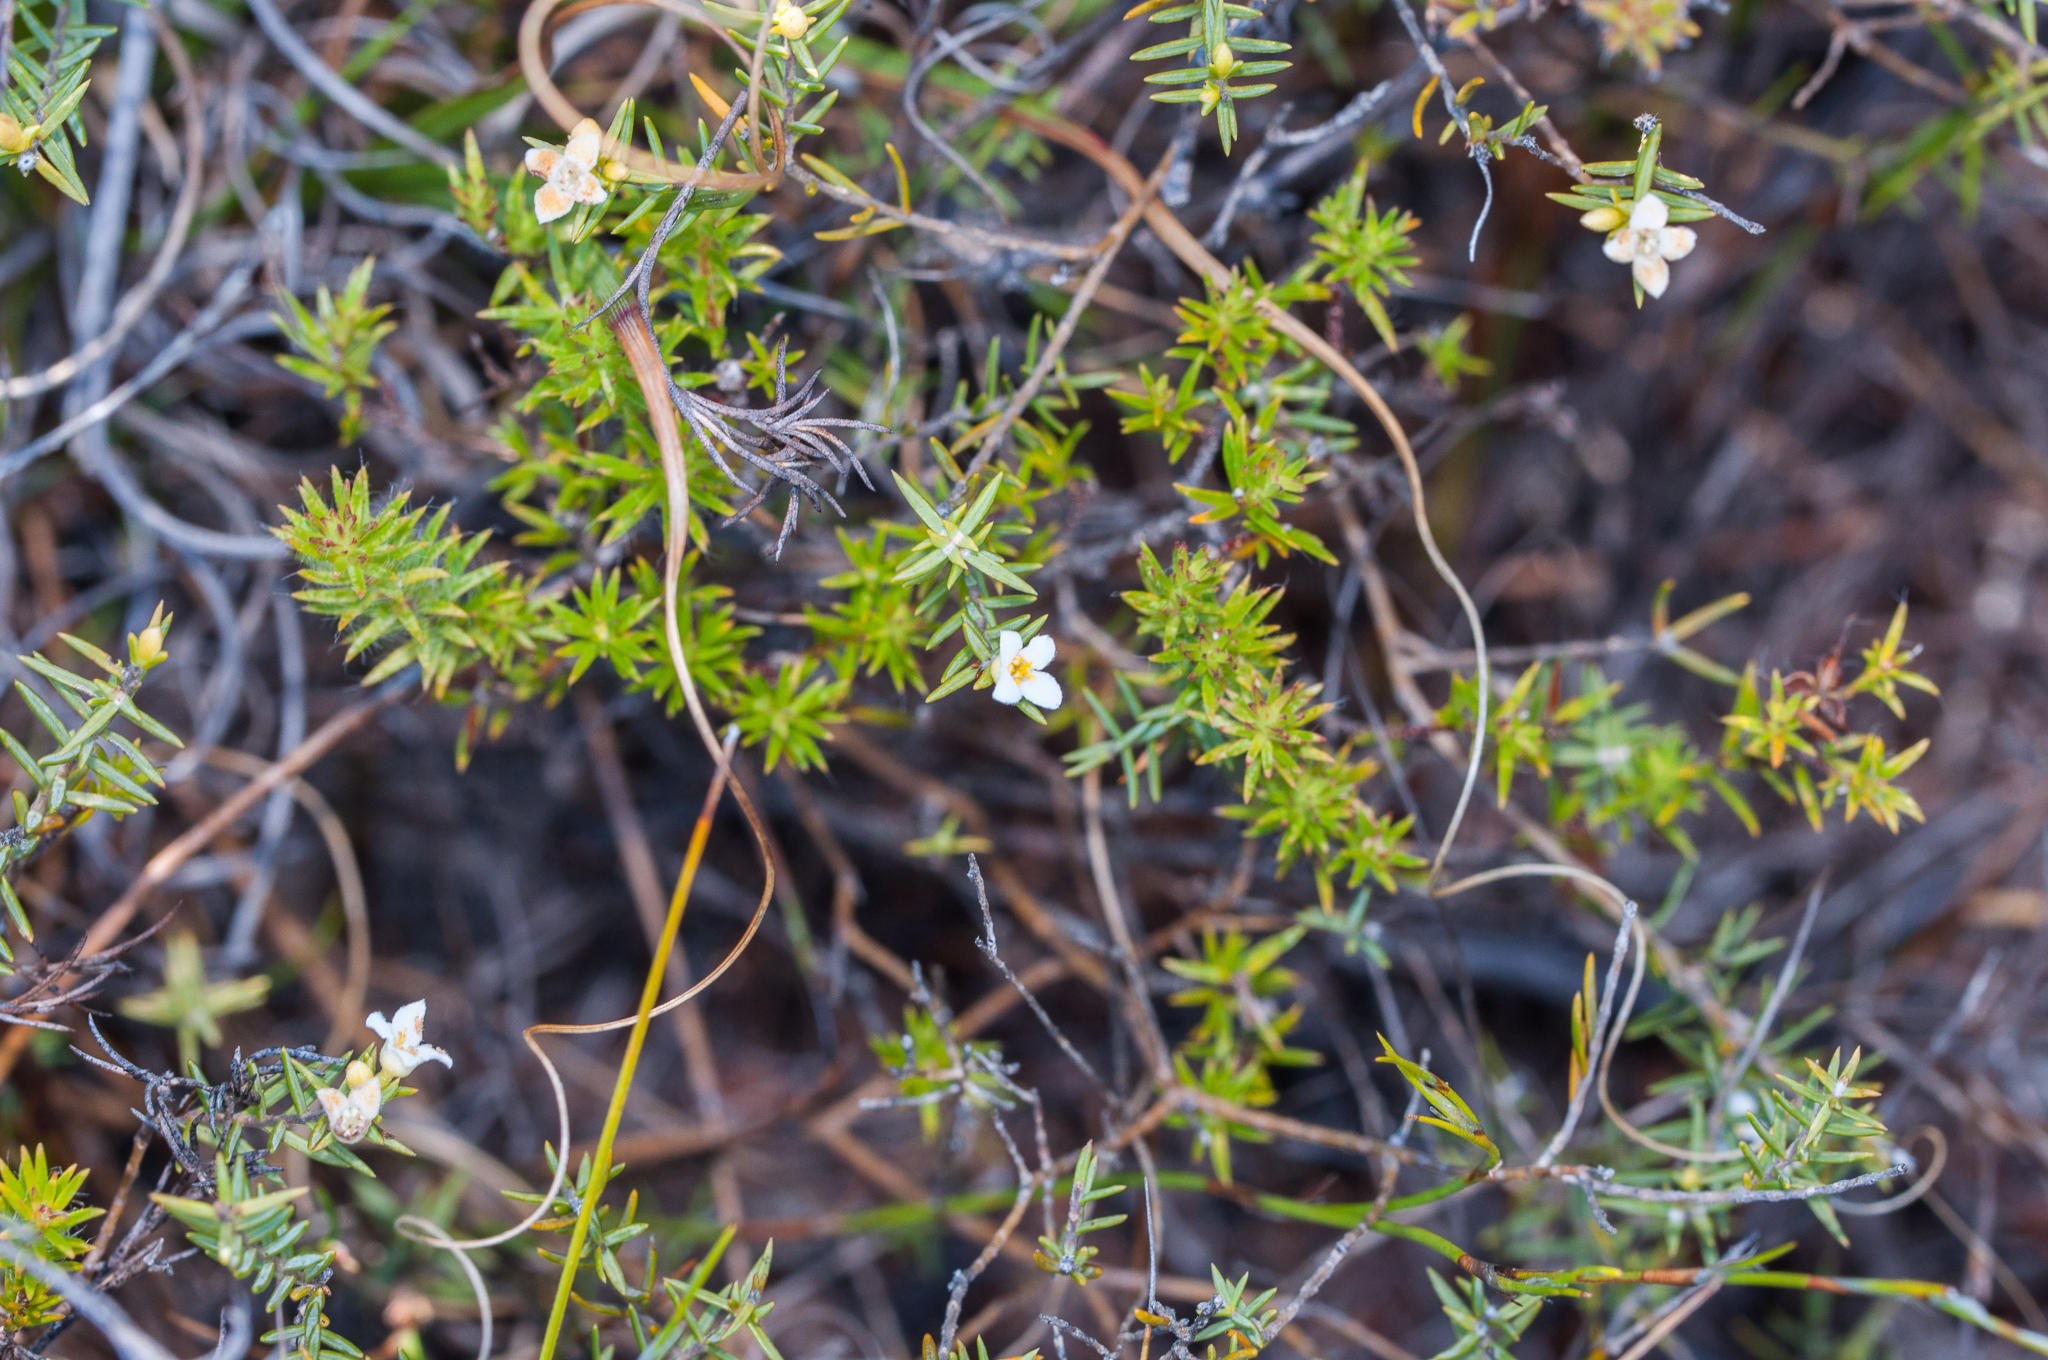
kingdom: Plantae
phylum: Tracheophyta
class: Magnoliopsida
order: Malvales
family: Thymelaeaceae
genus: Lachnaea
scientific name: Lachnaea filicaulis
